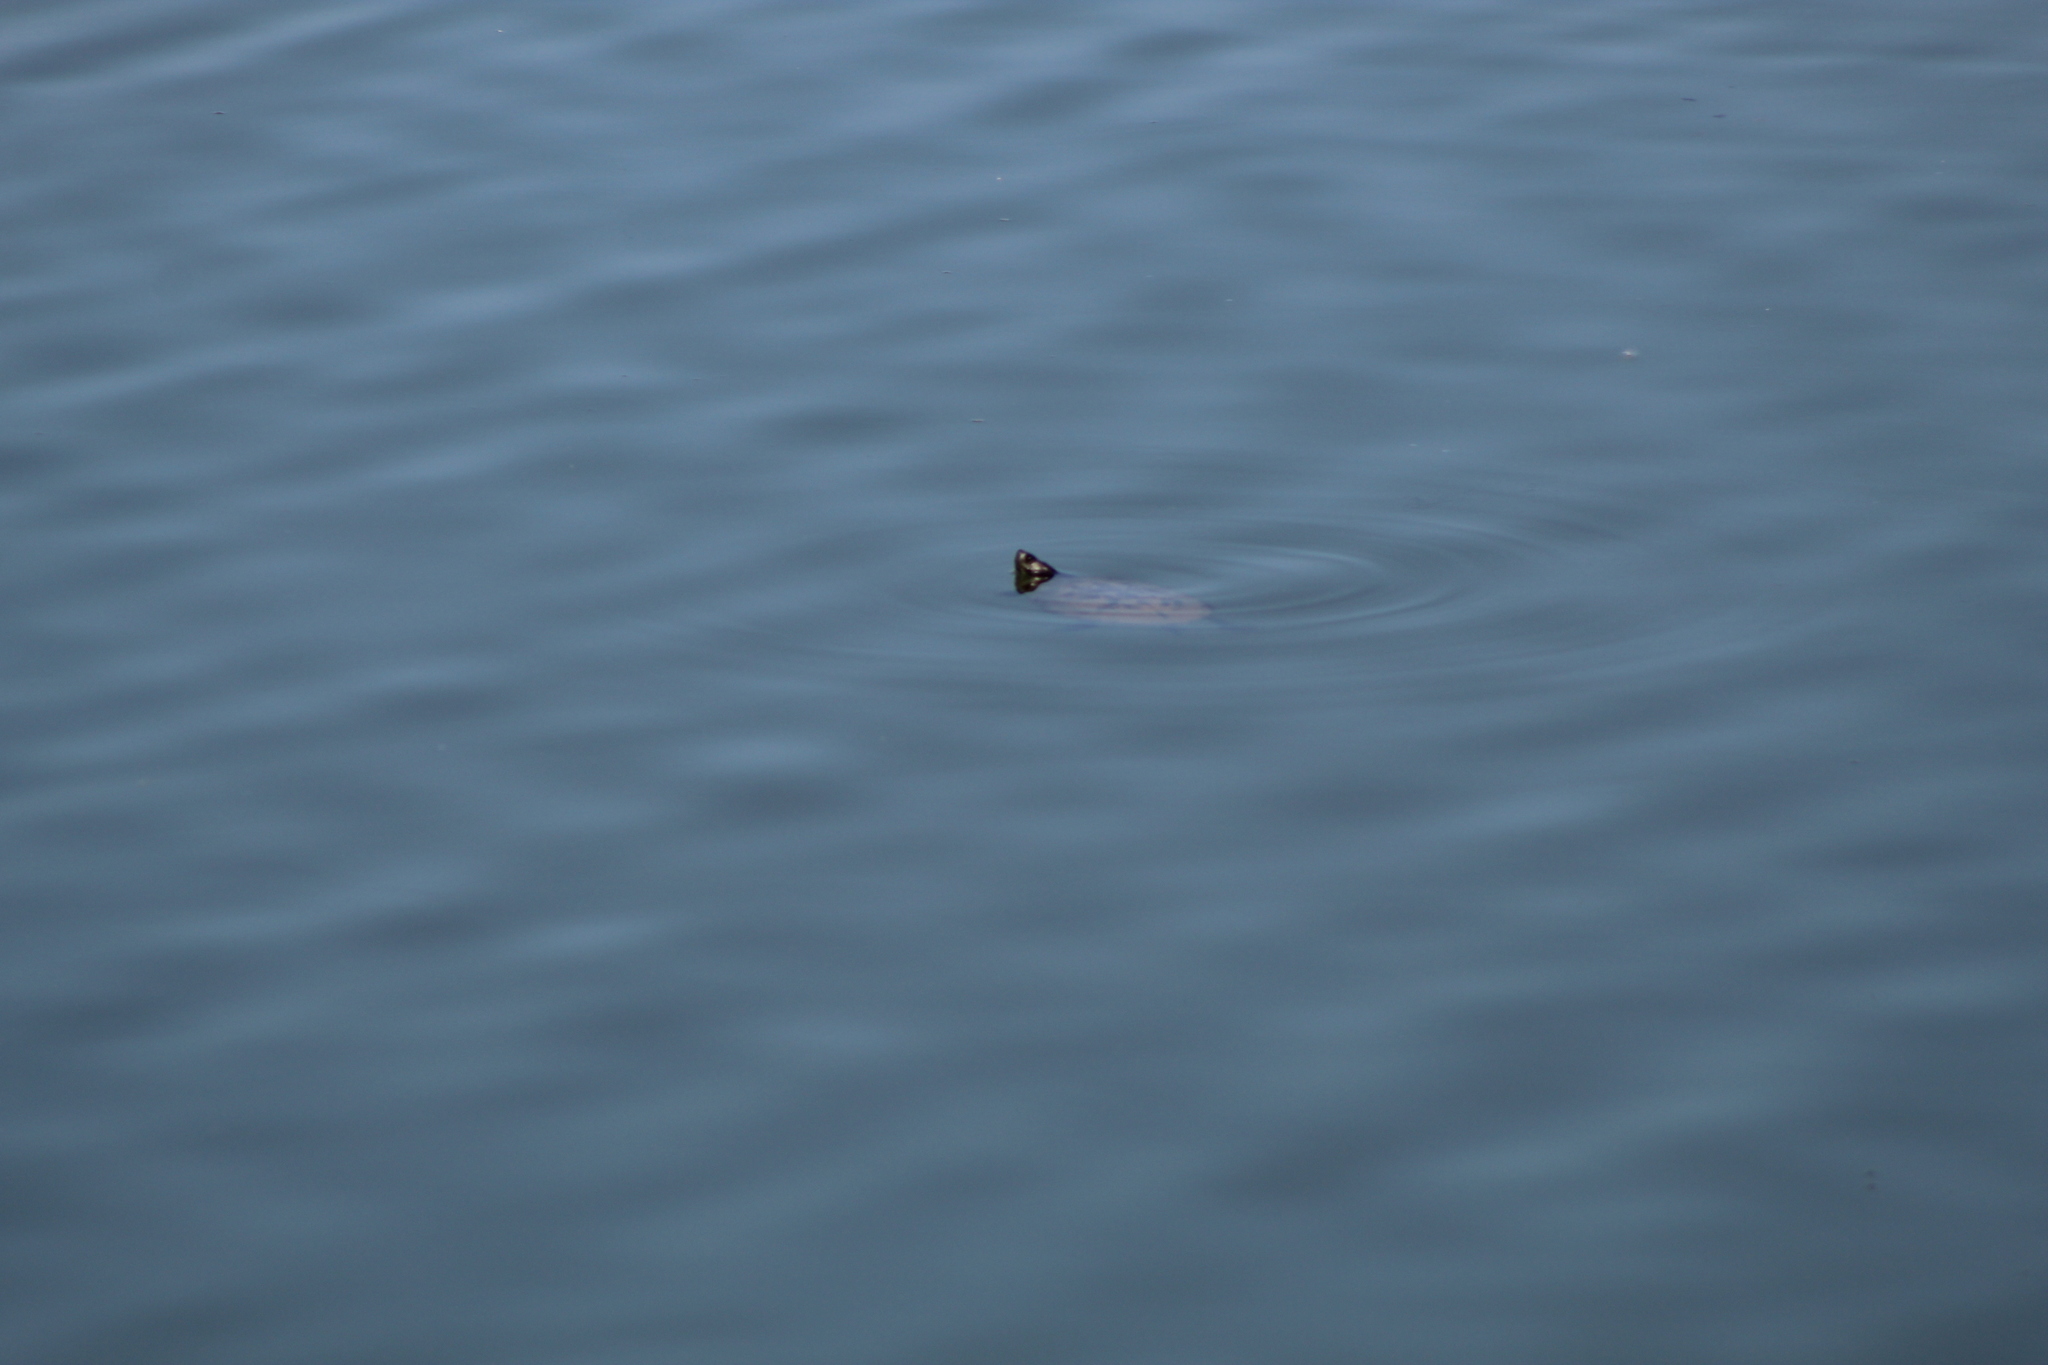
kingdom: Animalia
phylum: Chordata
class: Testudines
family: Emydidae
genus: Trachemys
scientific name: Trachemys scripta
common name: Slider
